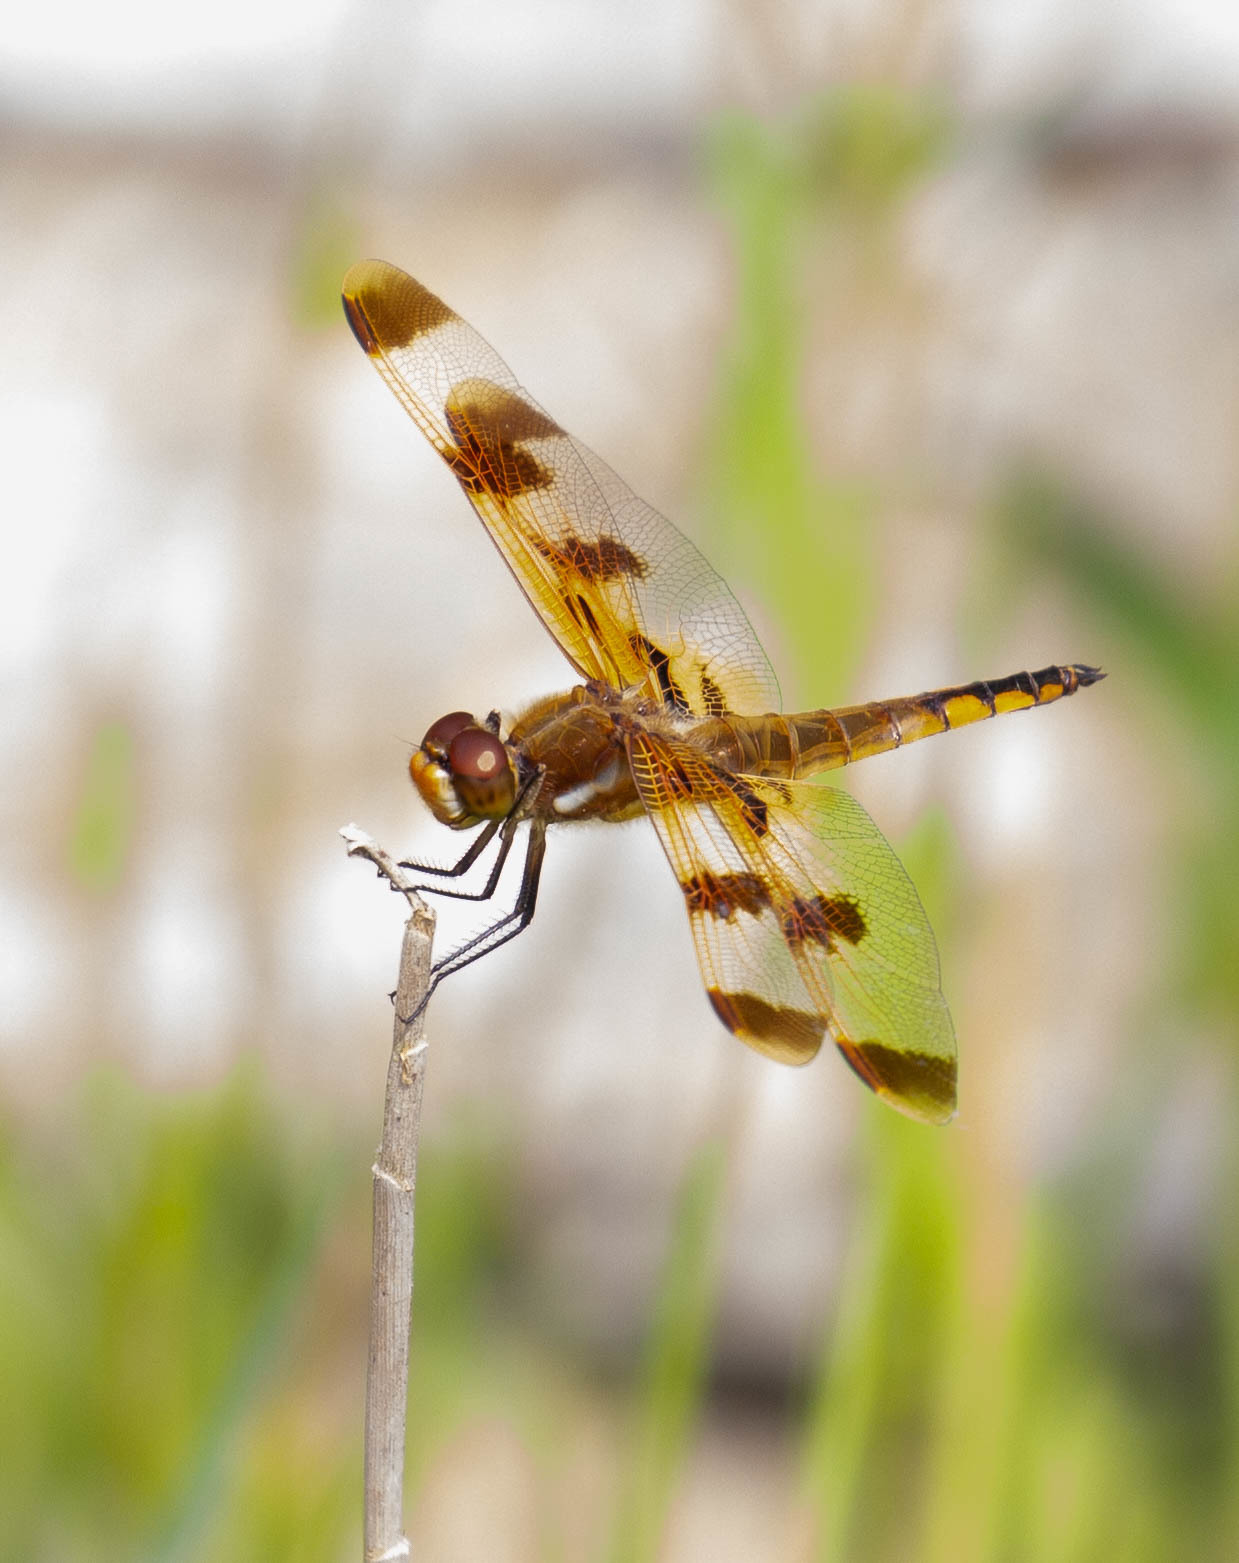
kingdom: Animalia
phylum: Arthropoda
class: Insecta
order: Odonata
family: Libellulidae
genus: Libellula
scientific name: Libellula semifasciata
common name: Painted skimmer
